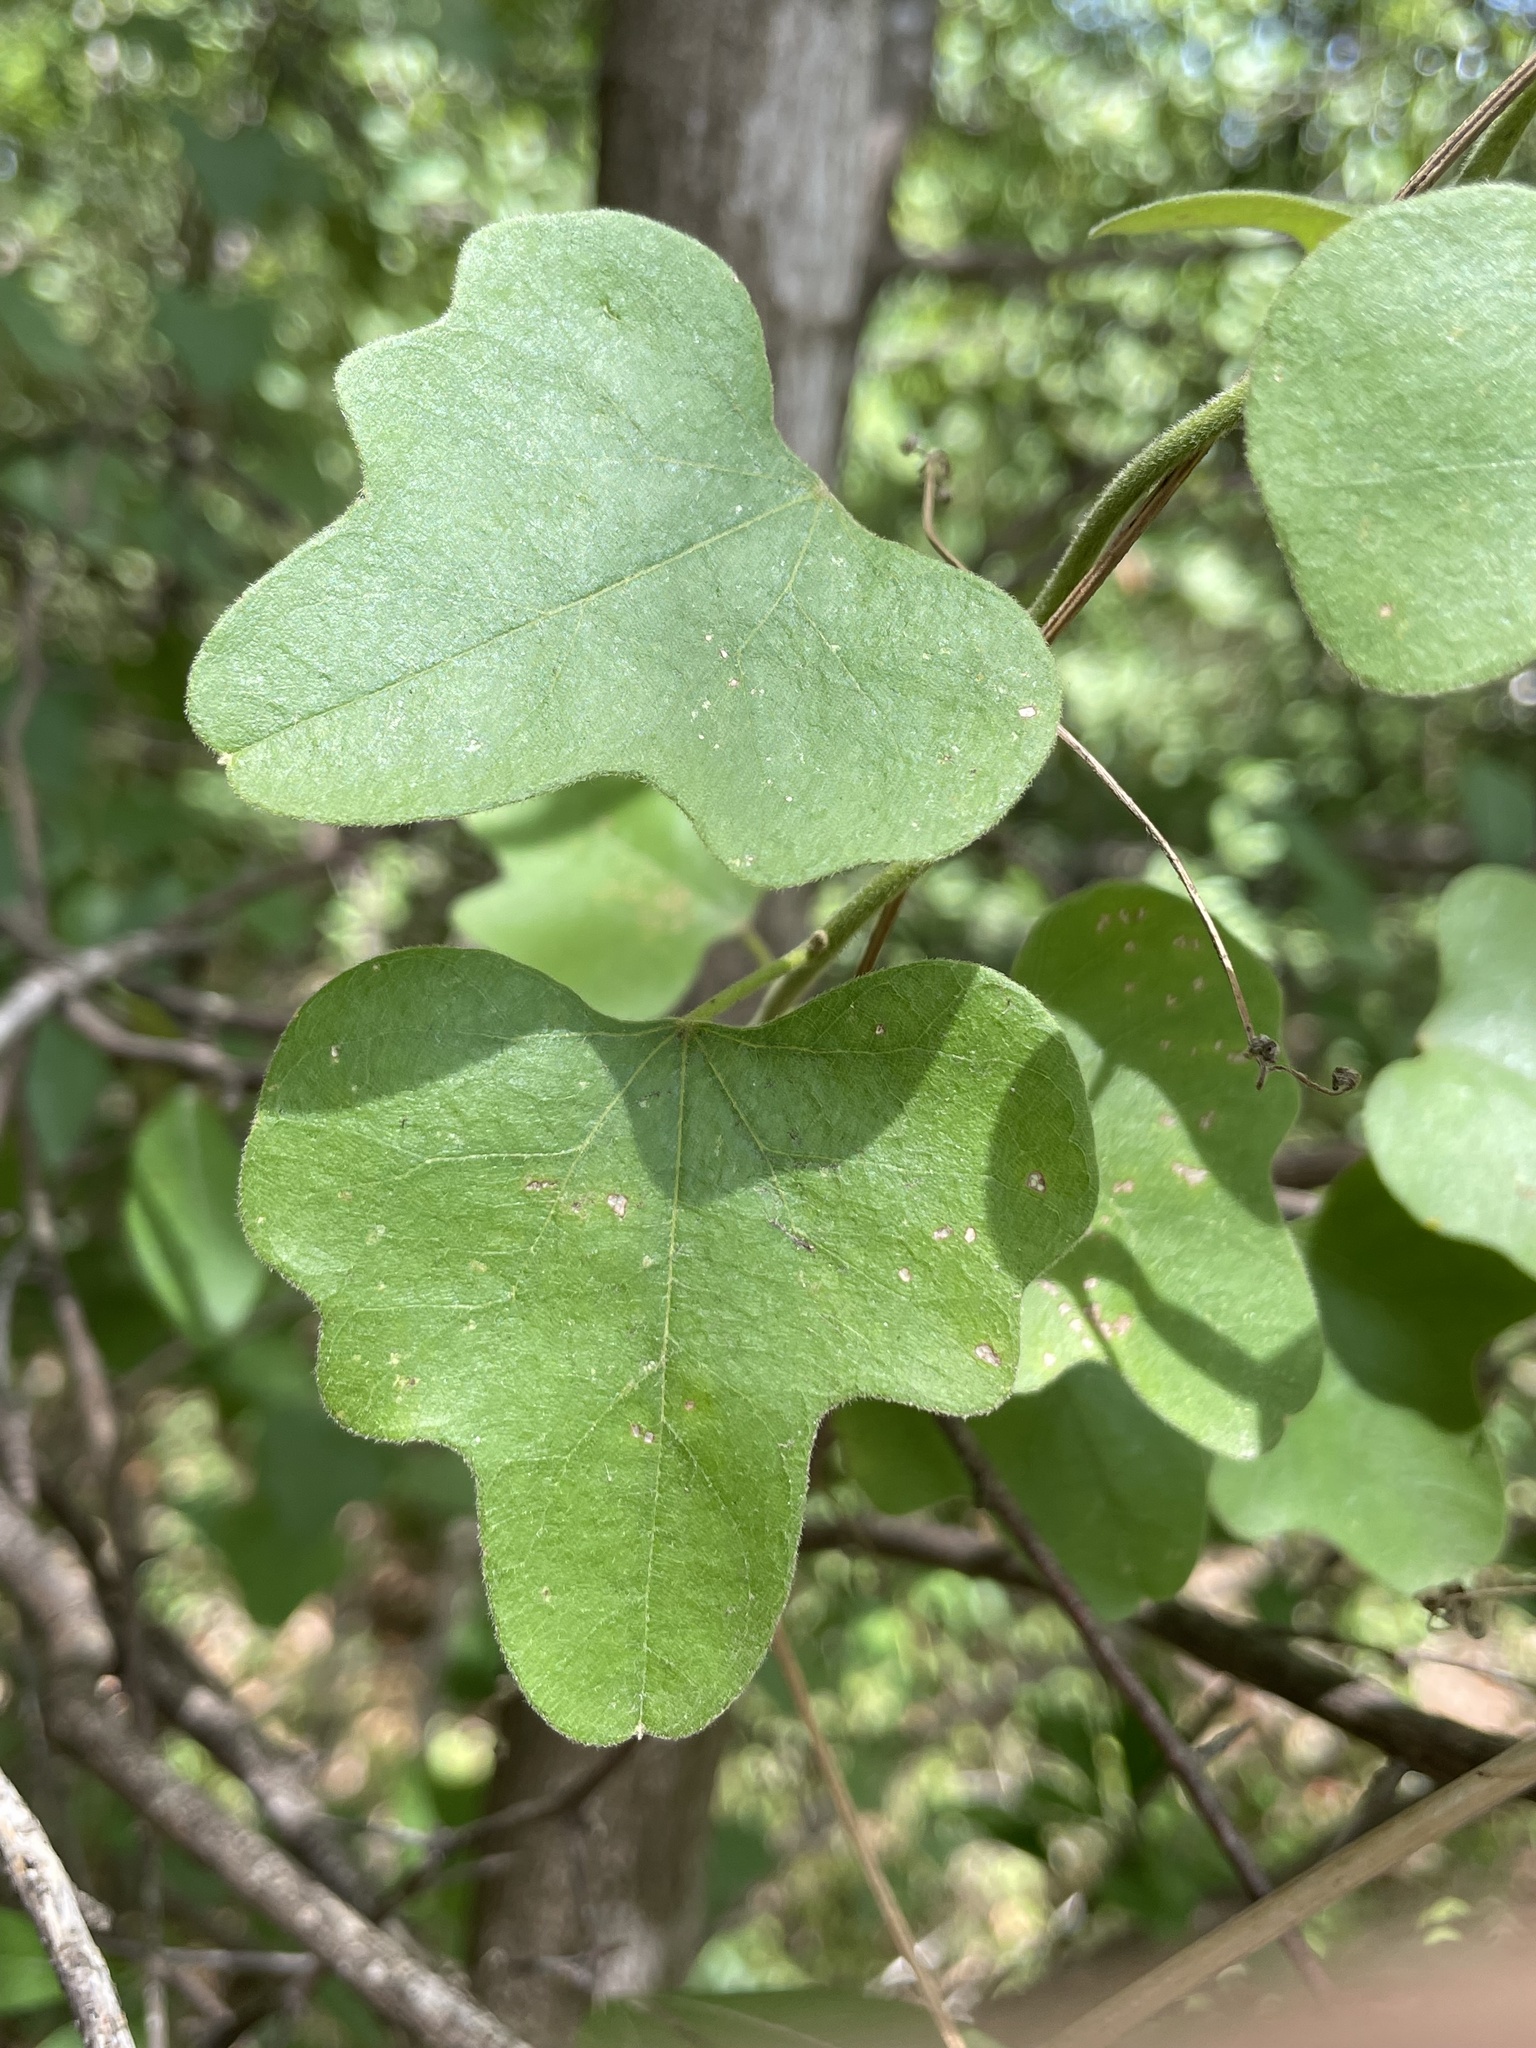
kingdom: Plantae
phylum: Tracheophyta
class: Magnoliopsida
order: Ranunculales
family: Menispermaceae
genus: Cocculus
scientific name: Cocculus carolinus
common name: Carolina moonseed
